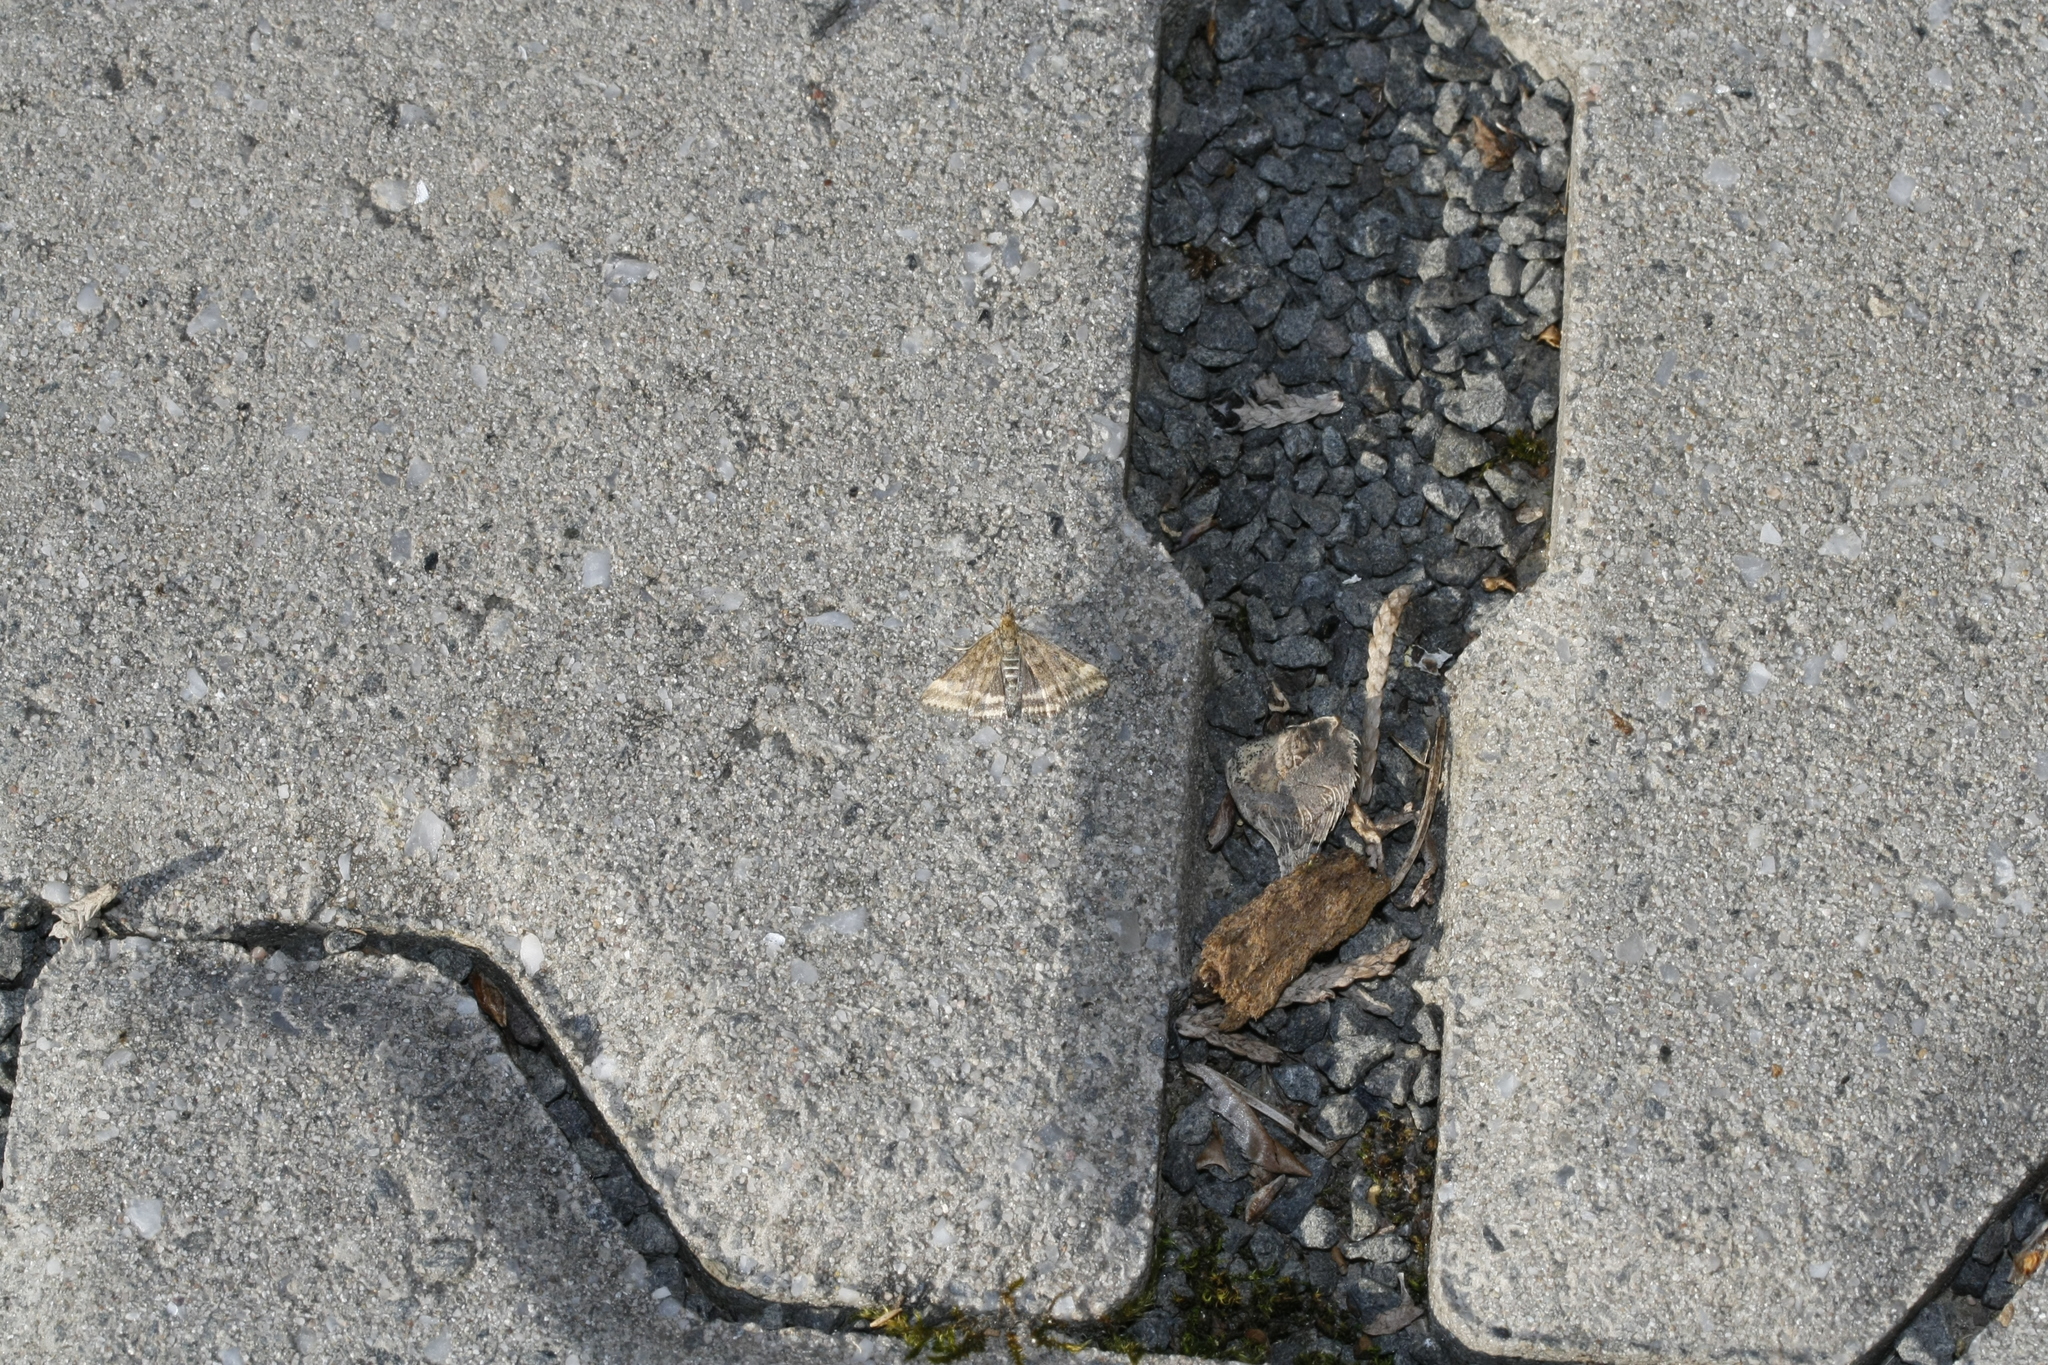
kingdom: Animalia
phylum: Arthropoda
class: Insecta
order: Lepidoptera
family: Crambidae
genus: Pyrausta
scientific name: Pyrausta despicata
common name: Straw-barred pearl
